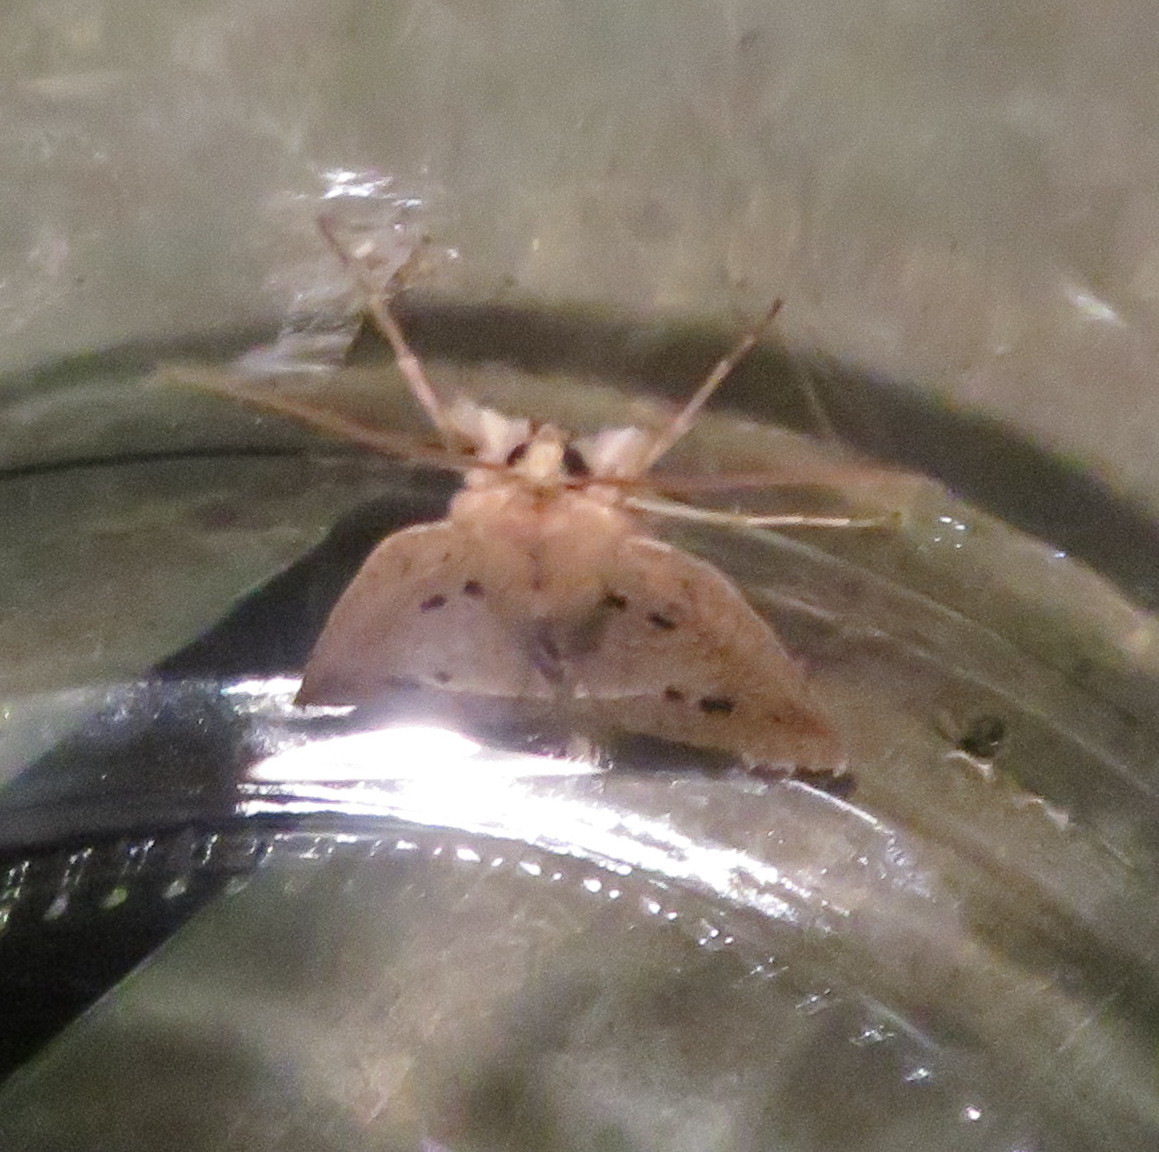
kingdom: Animalia
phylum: Arthropoda
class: Insecta
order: Lepidoptera
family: Geometridae
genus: Declana
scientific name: Declana leptomera
